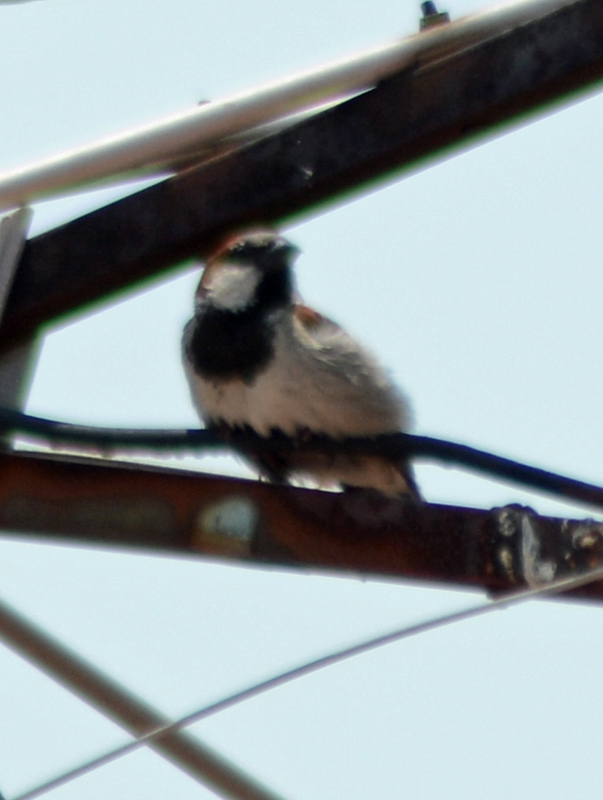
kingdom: Animalia
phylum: Chordata
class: Aves
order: Passeriformes
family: Passeridae
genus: Passer
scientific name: Passer domesticus
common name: House sparrow
